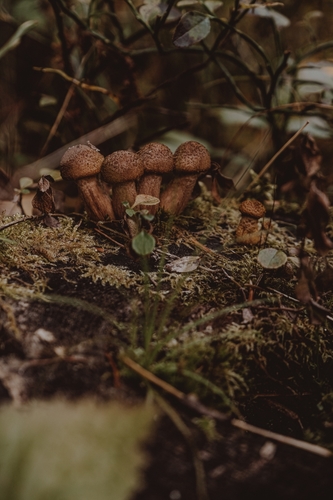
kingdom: Fungi
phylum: Basidiomycota
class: Agaricomycetes
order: Agaricales
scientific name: Agaricales
